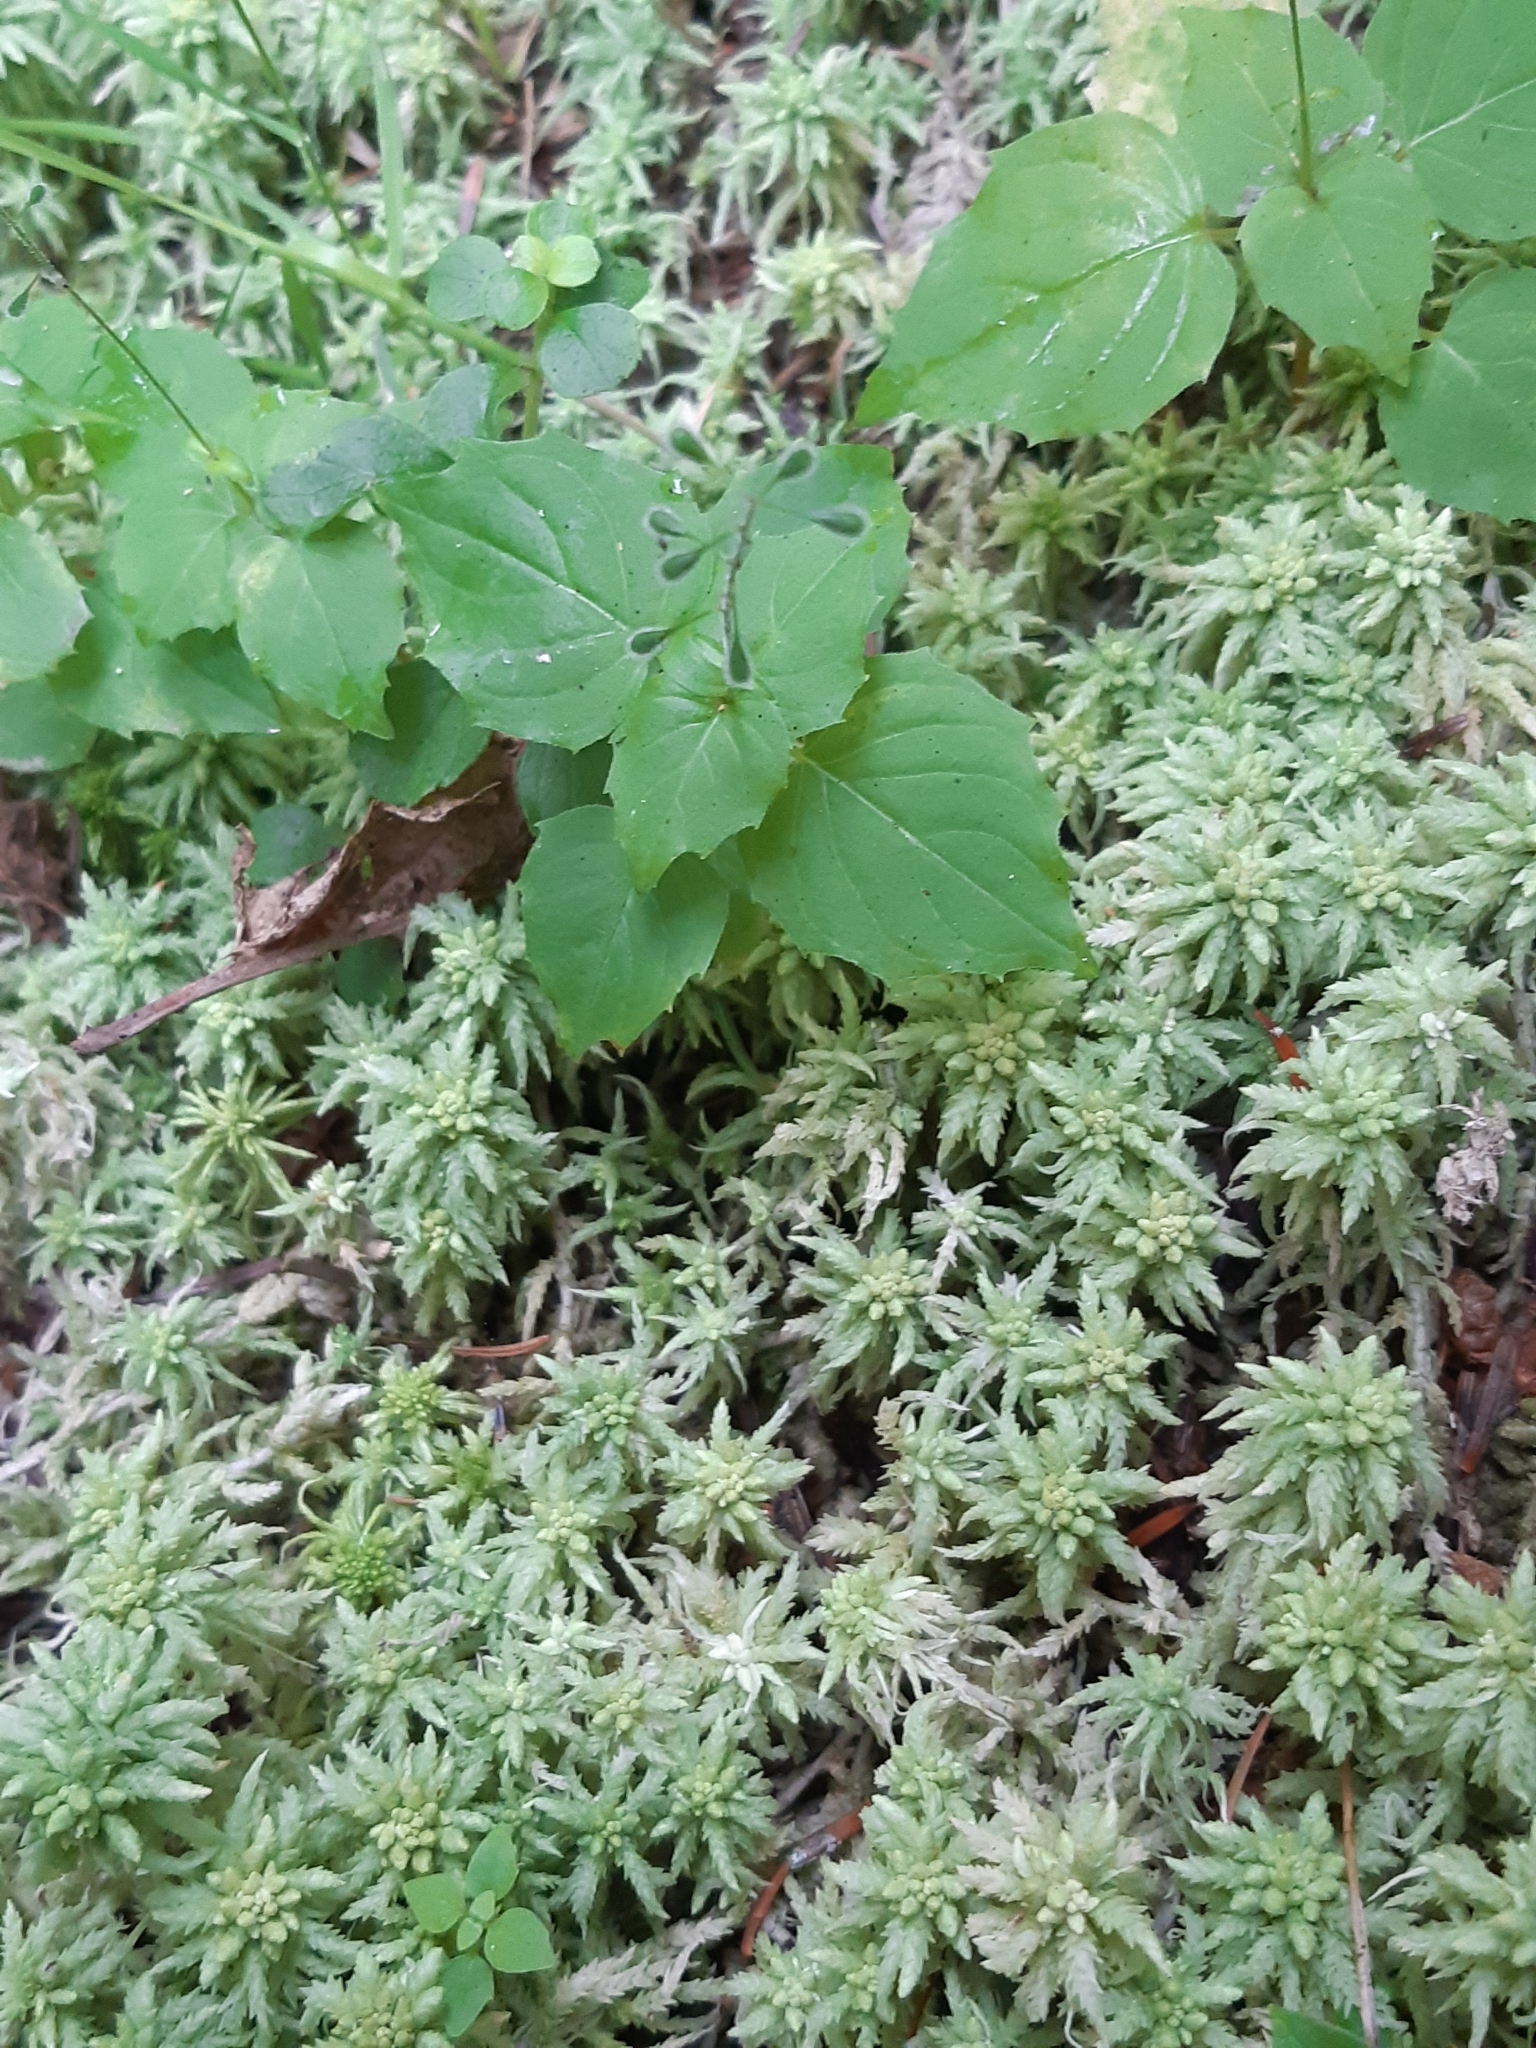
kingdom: Plantae
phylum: Tracheophyta
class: Magnoliopsida
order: Myrtales
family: Onagraceae
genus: Circaea
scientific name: Circaea alpina
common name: Alpine enchanter's-nightshade
